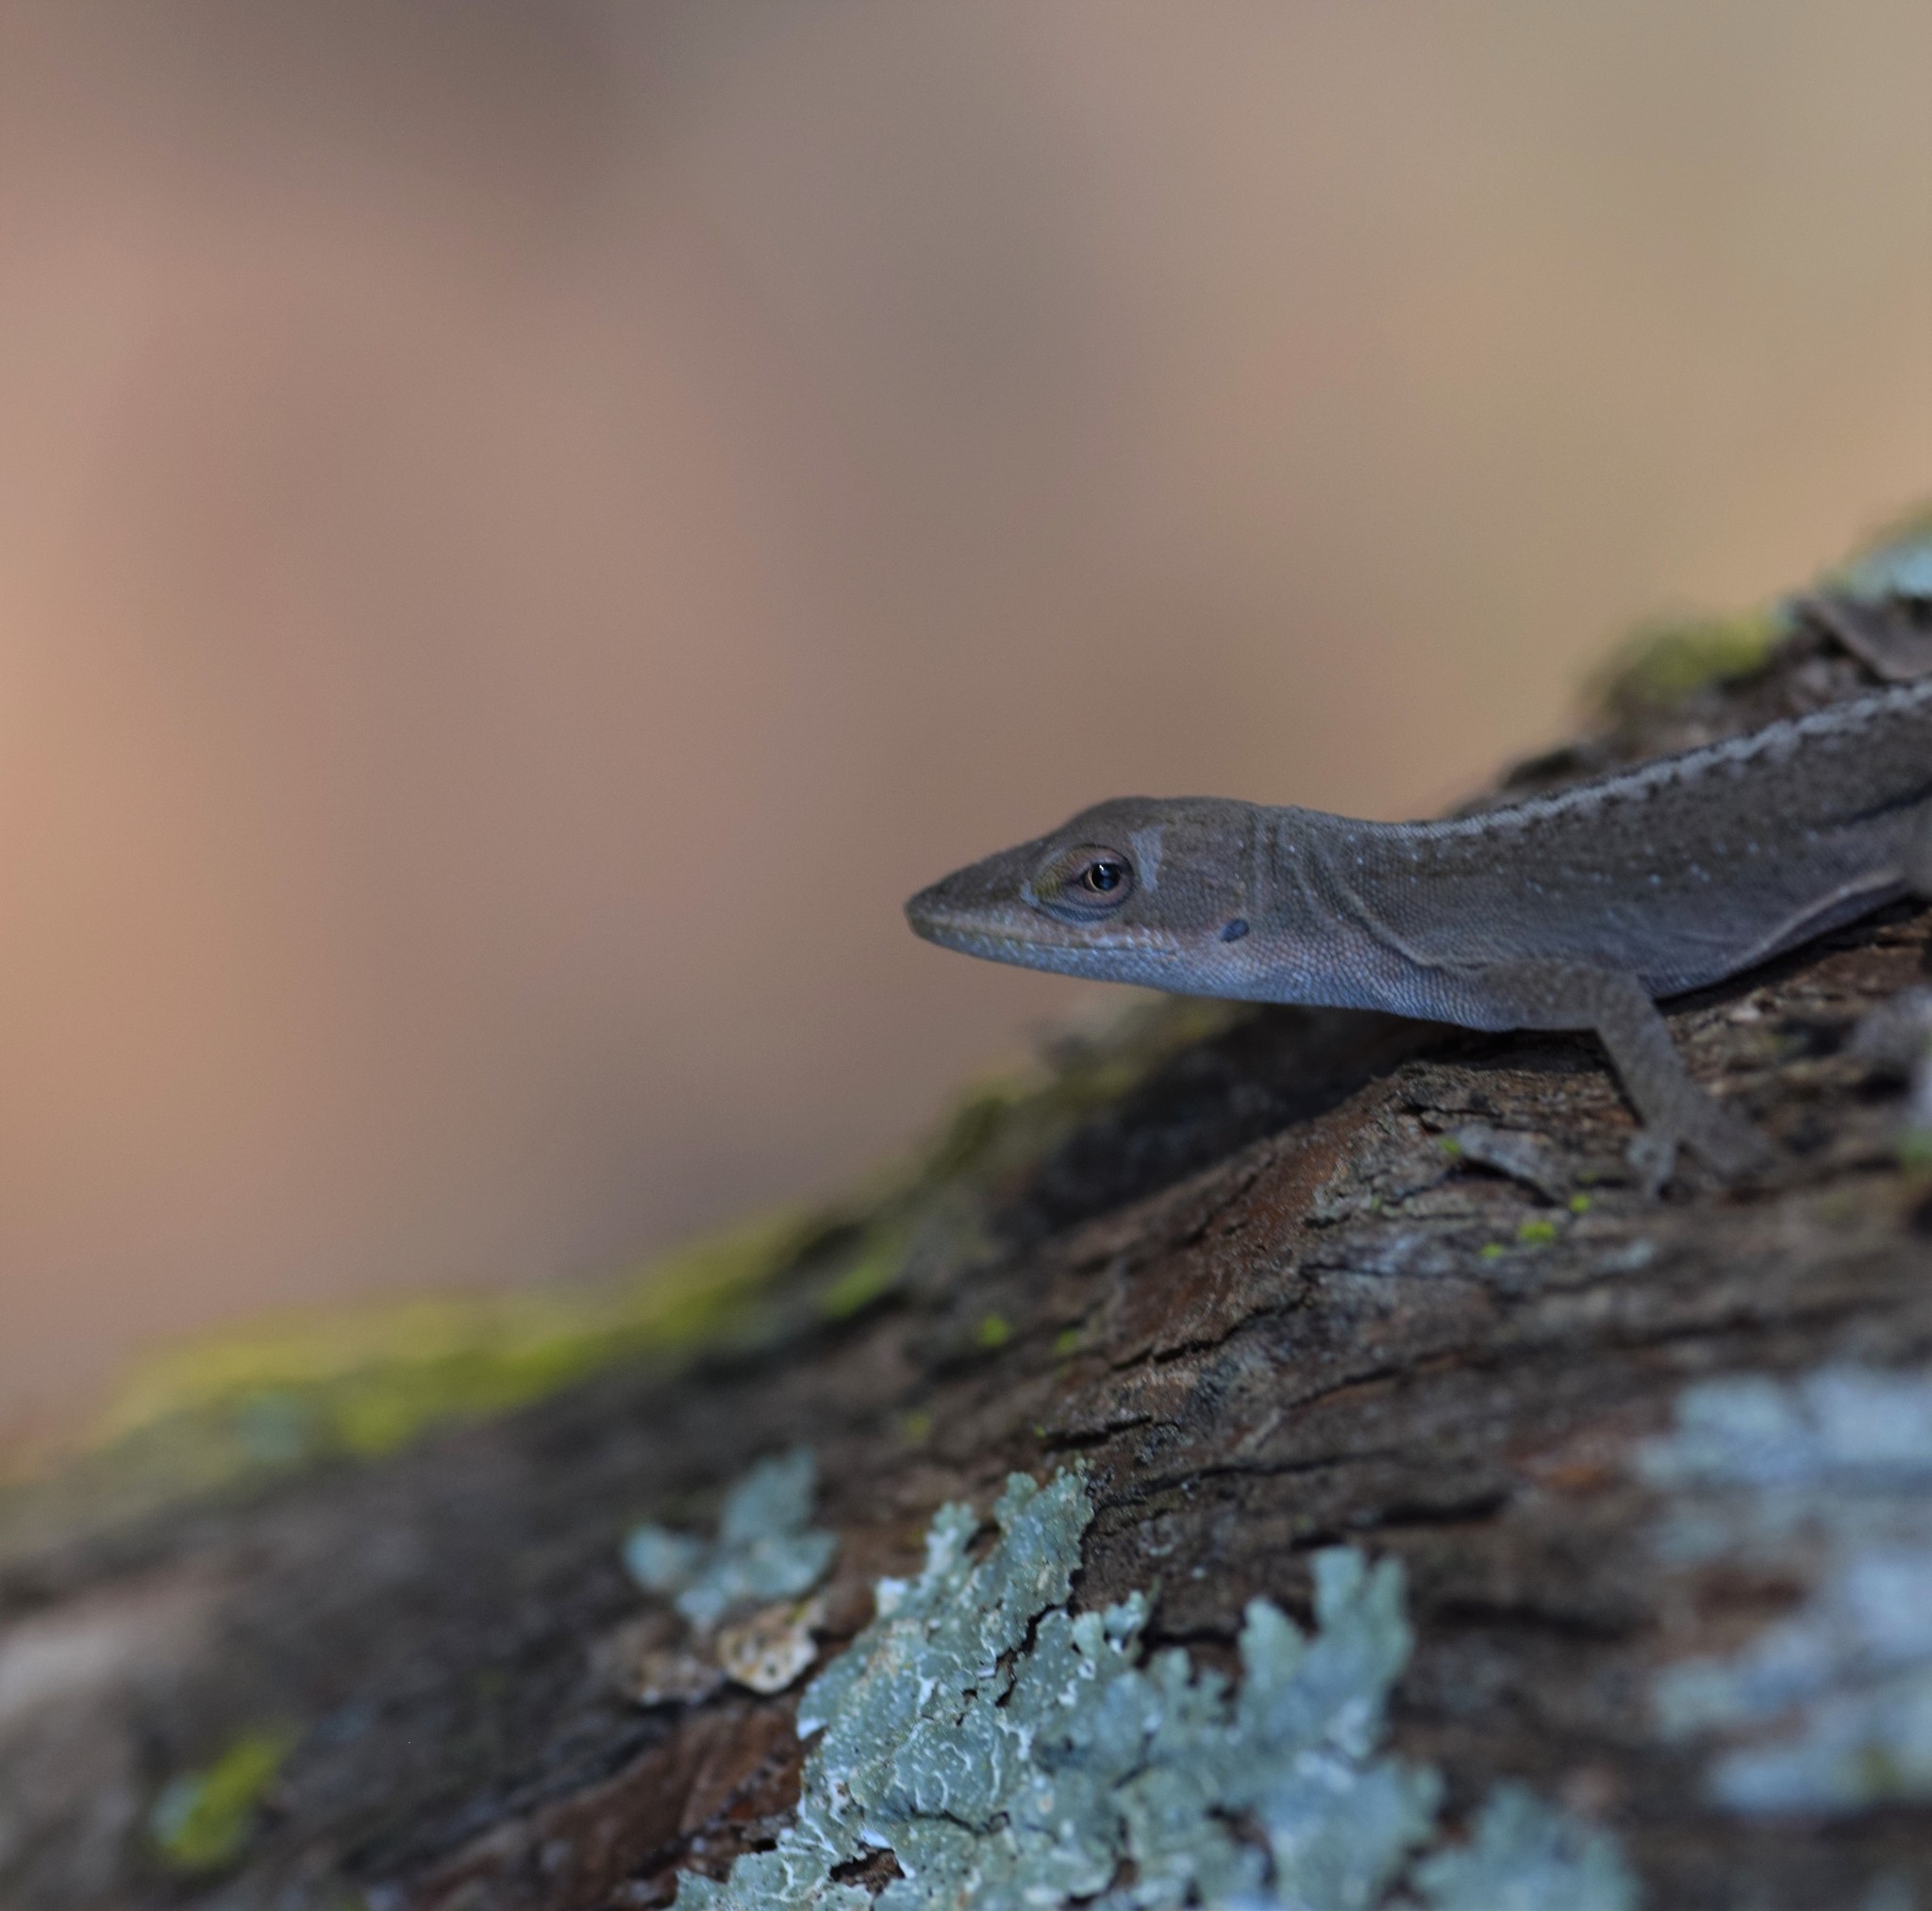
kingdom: Animalia
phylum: Chordata
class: Squamata
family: Dactyloidae
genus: Anolis
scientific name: Anolis carolinensis
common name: Green anole
